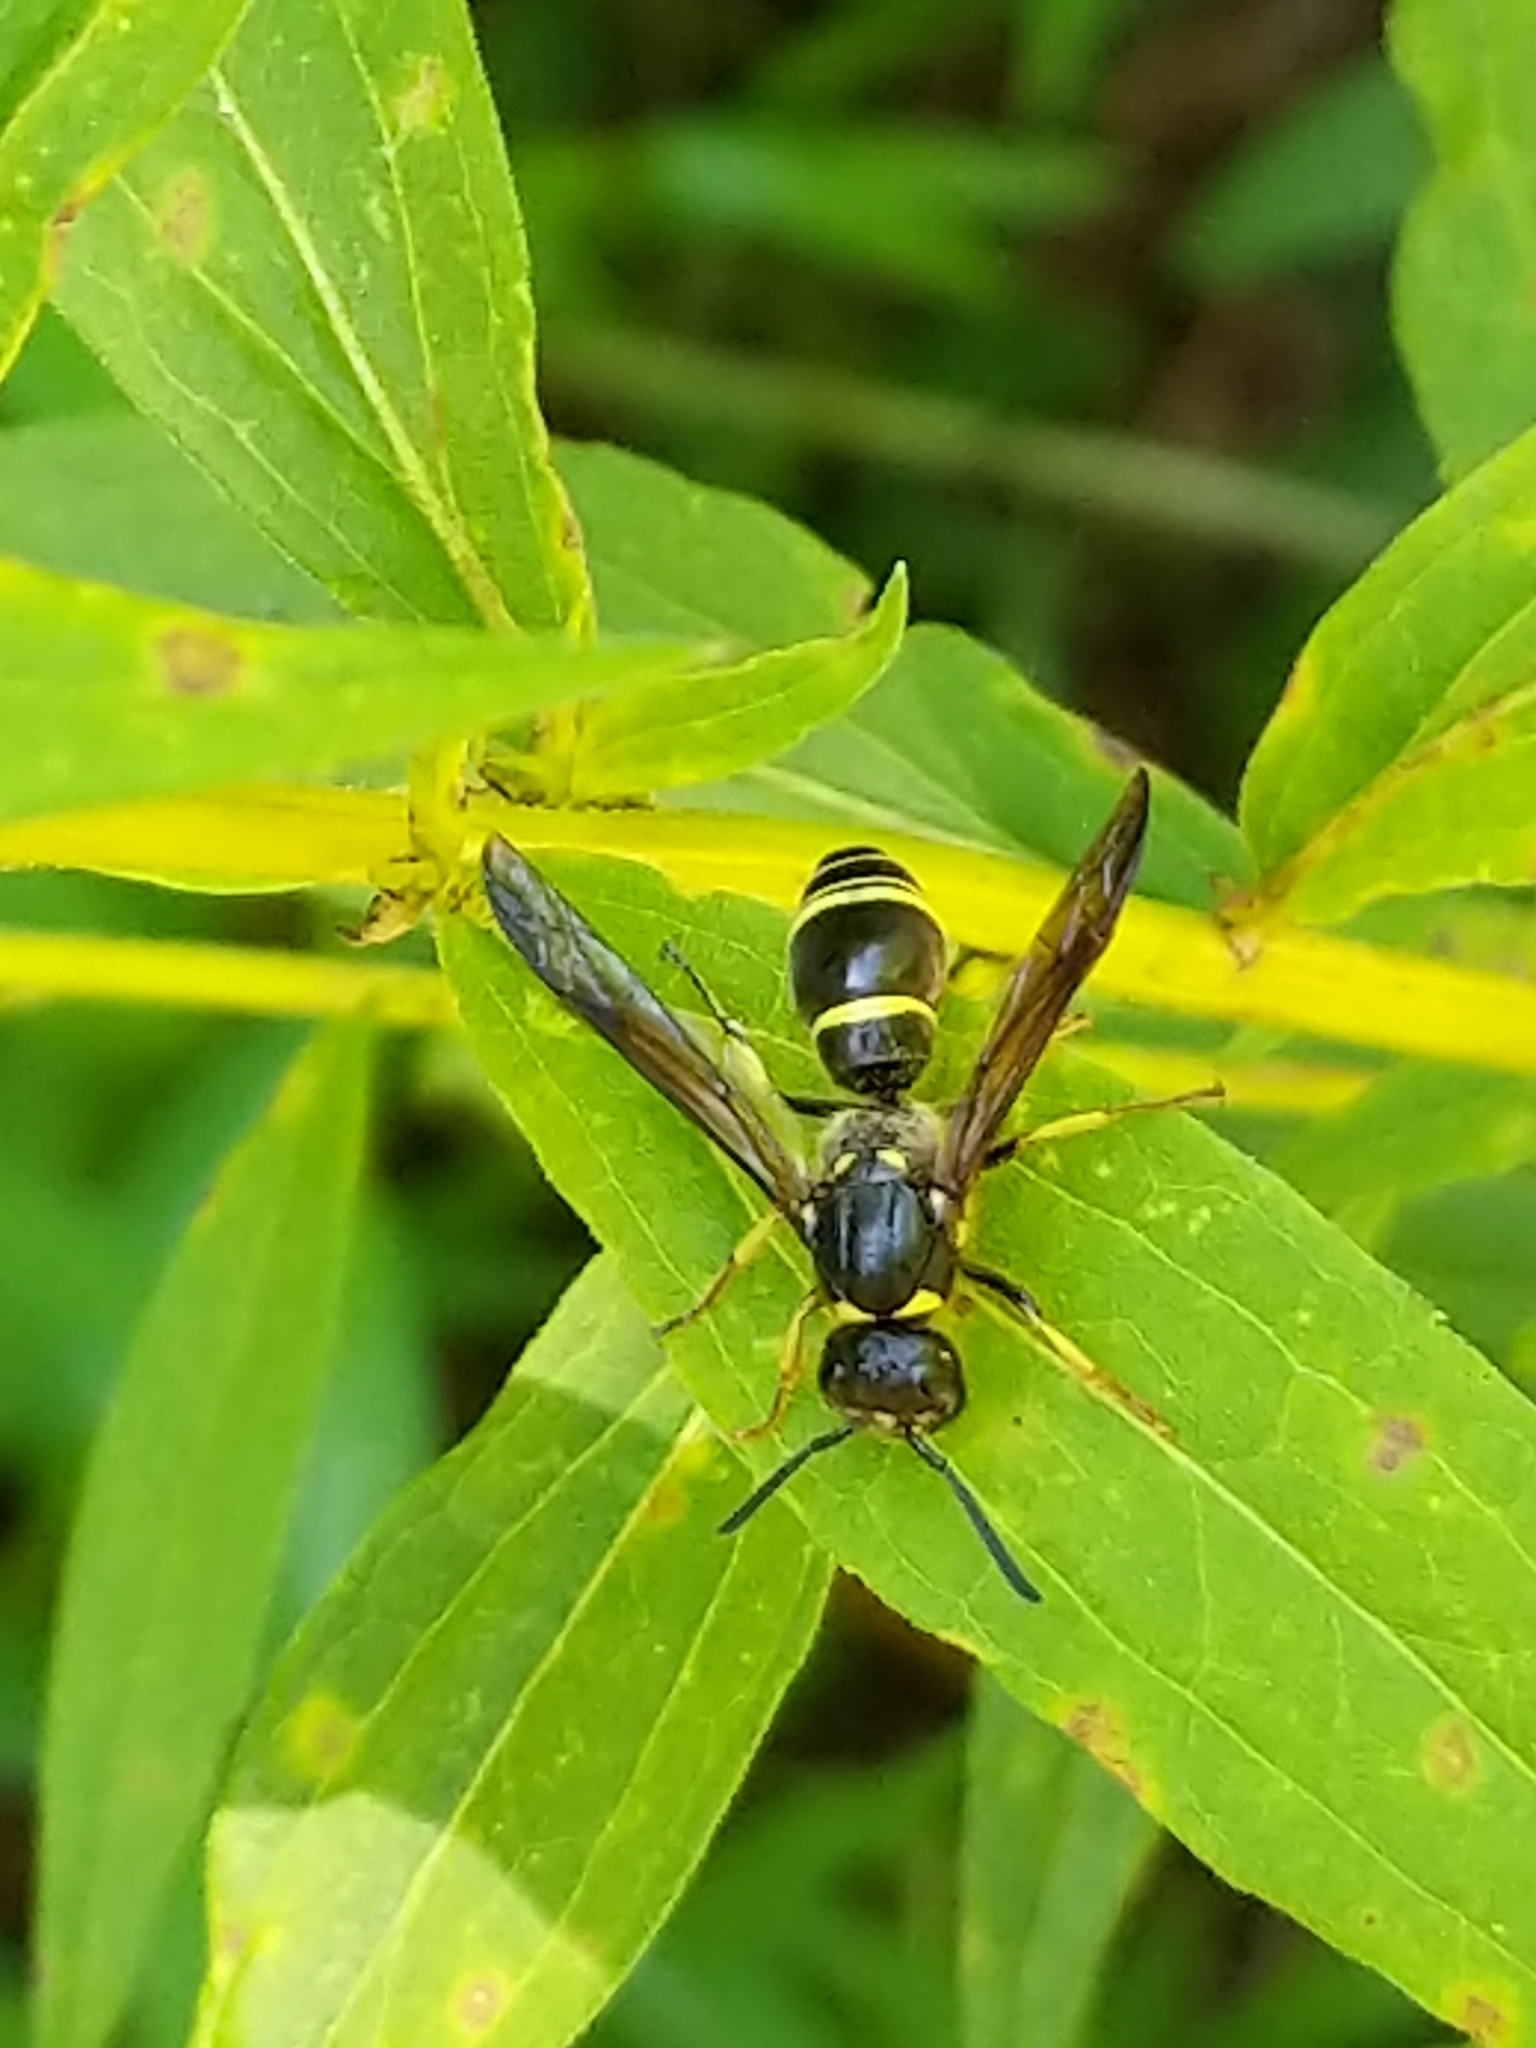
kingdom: Animalia
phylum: Arthropoda
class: Insecta
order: Hymenoptera
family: Vespidae
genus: Ancistrocerus
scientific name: Ancistrocerus
